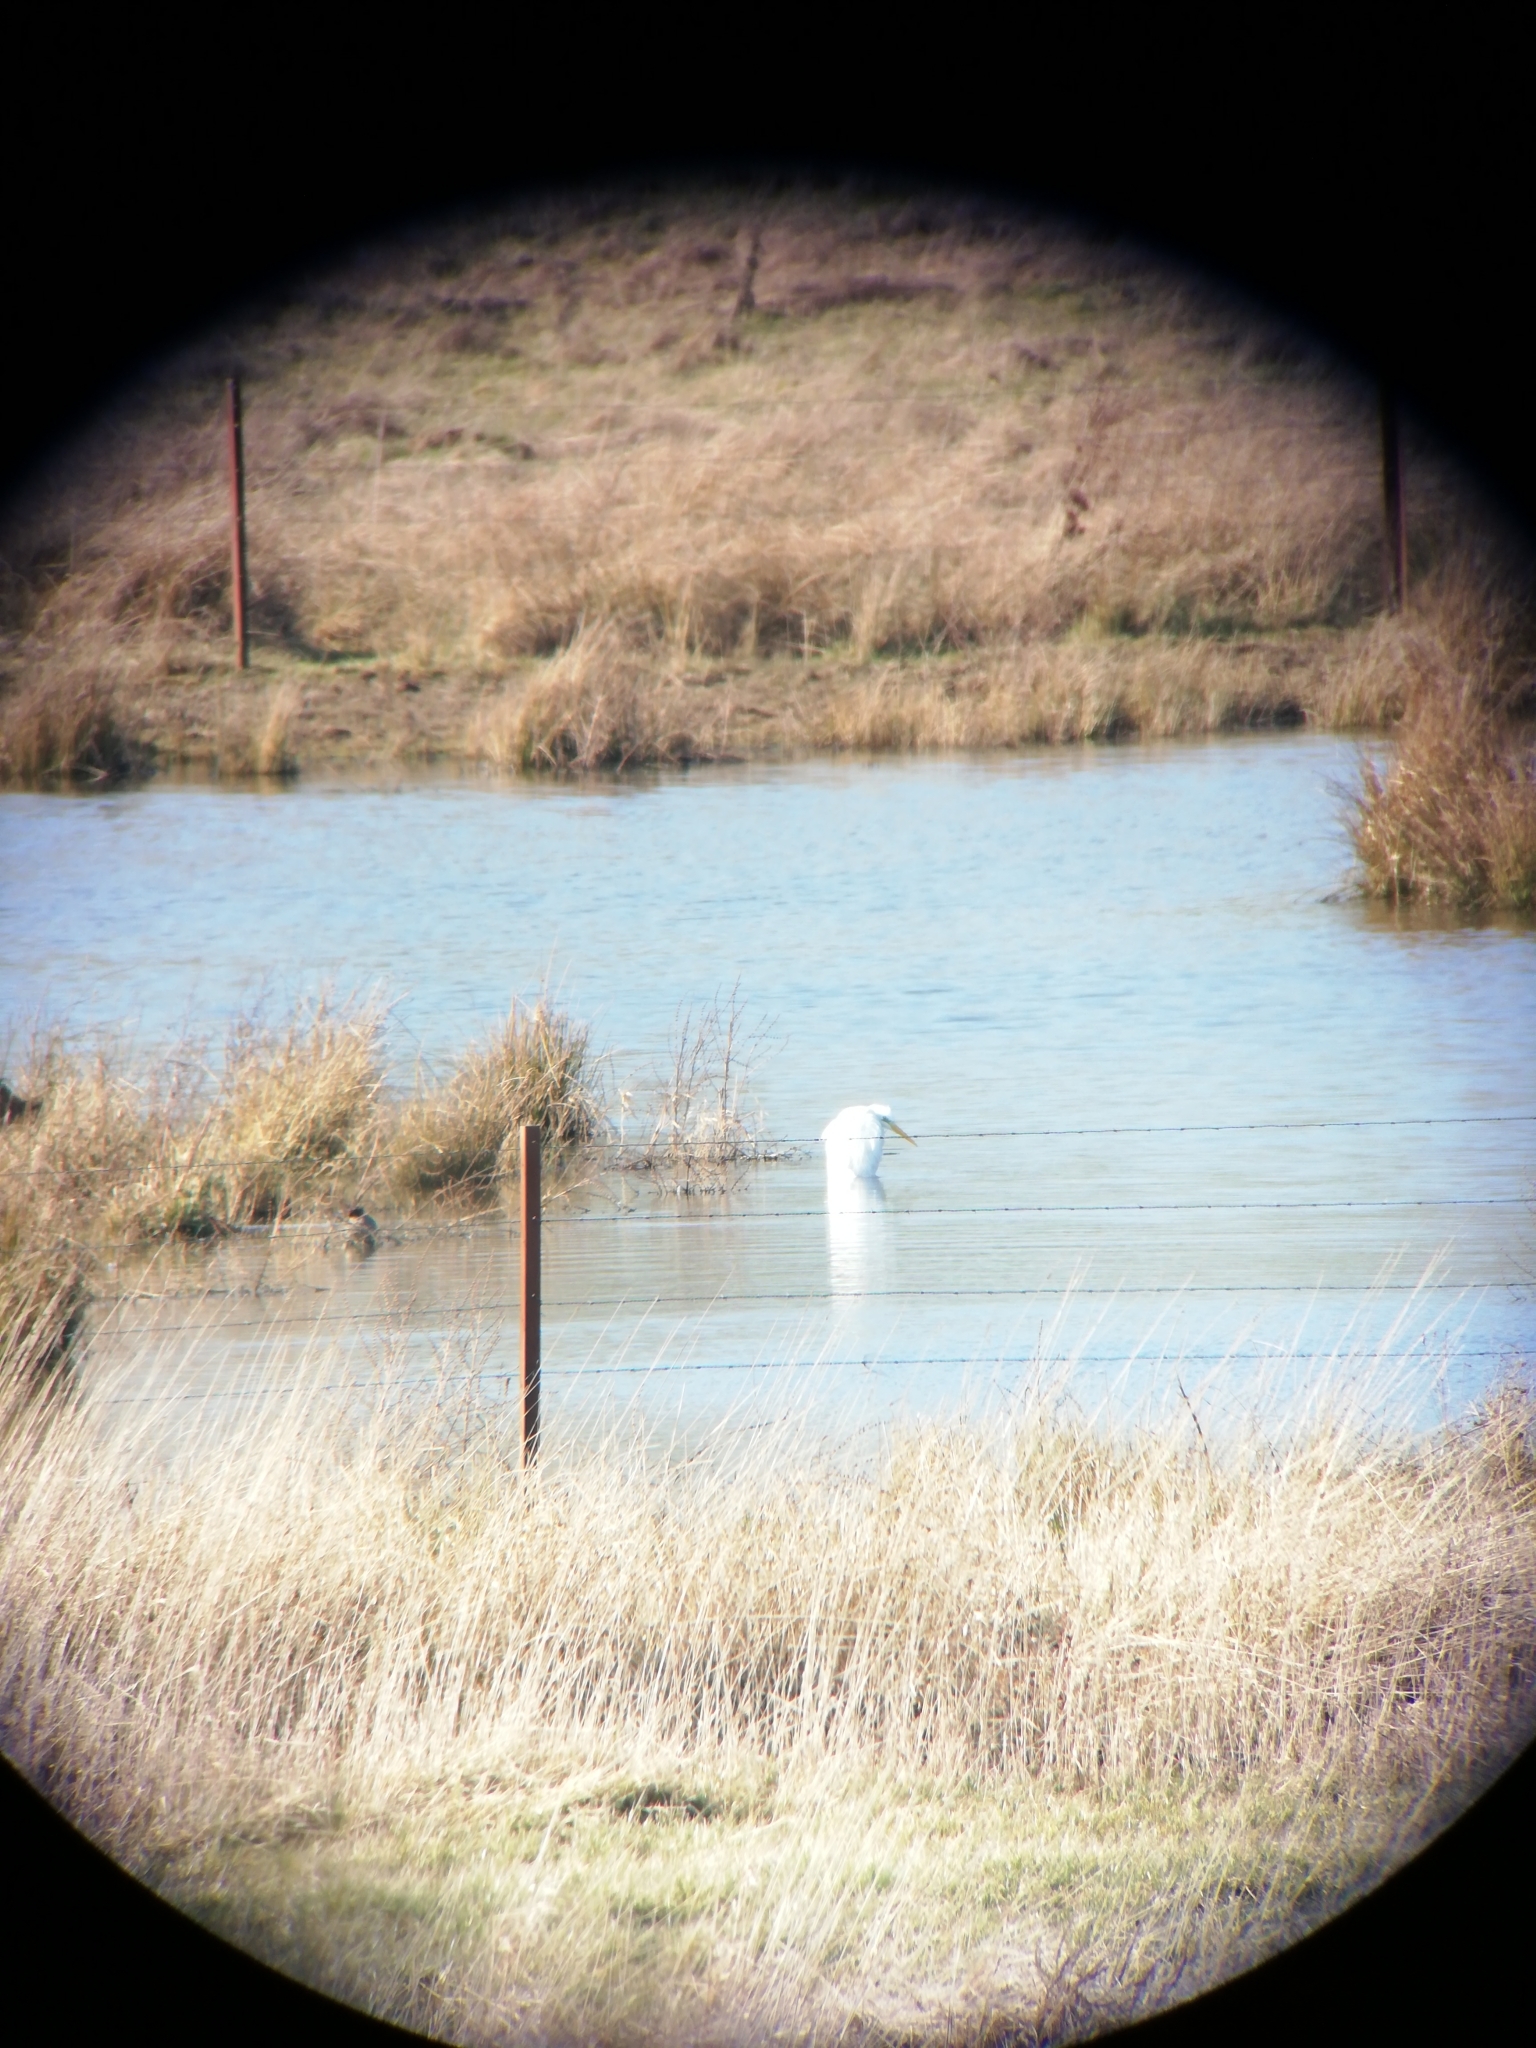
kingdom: Animalia
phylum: Chordata
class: Aves
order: Pelecaniformes
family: Ardeidae
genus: Ardea
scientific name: Ardea alba
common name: Great egret
